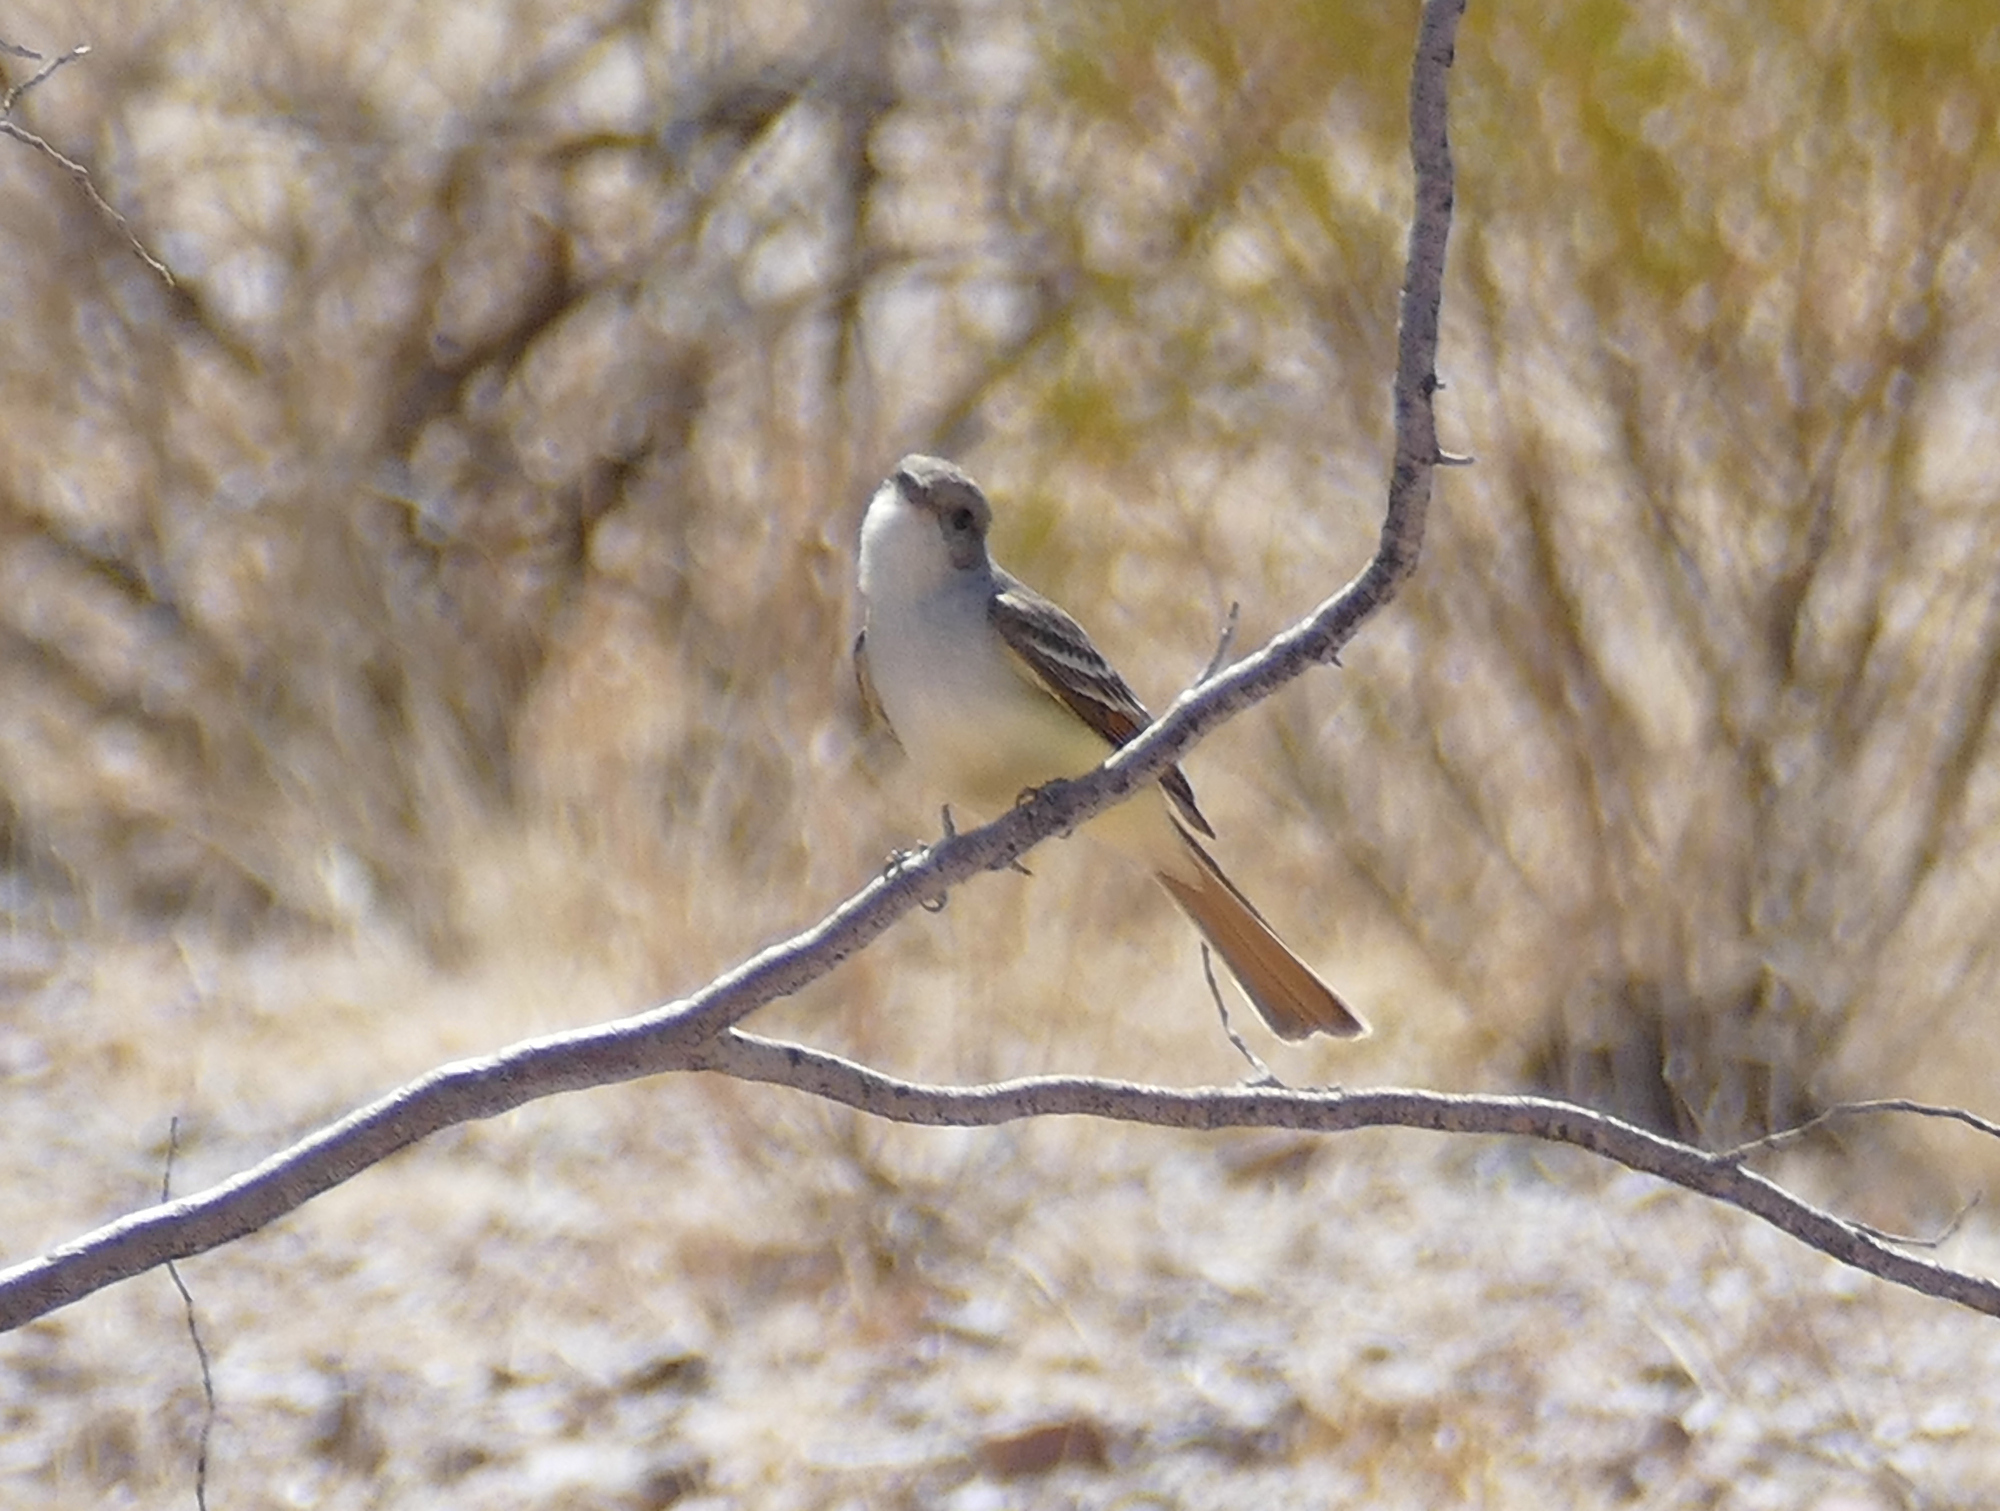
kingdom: Animalia
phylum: Chordata
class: Aves
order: Passeriformes
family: Tyrannidae
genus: Myiarchus
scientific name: Myiarchus cinerascens
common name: Ash-throated flycatcher
